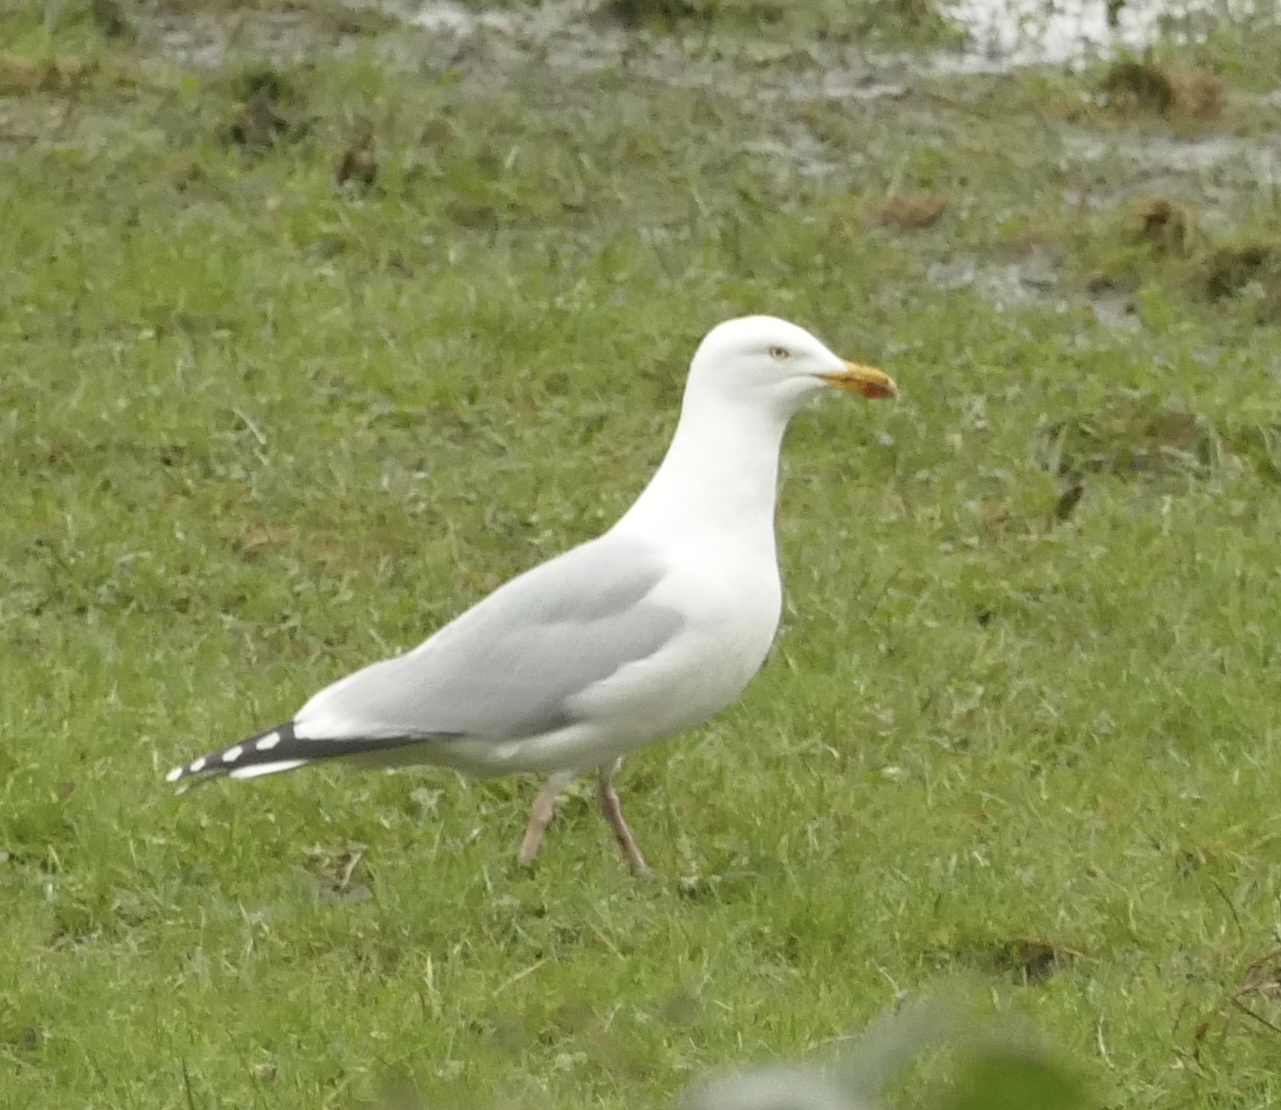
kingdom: Animalia
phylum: Chordata
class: Aves
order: Charadriiformes
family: Laridae
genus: Larus
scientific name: Larus argentatus
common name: Herring gull
